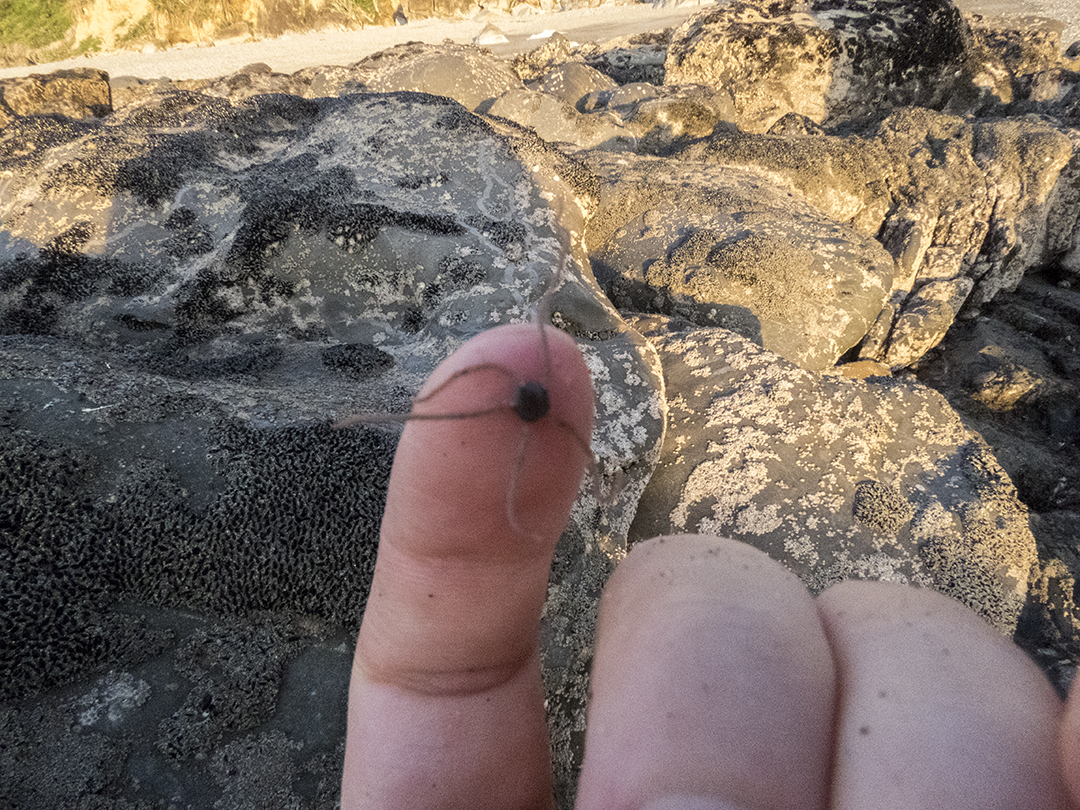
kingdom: Animalia
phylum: Echinodermata
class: Ophiuroidea
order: Amphilepidida
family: Amphiuridae
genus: Amphipholis
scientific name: Amphipholis squamata
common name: Brooding snake star
